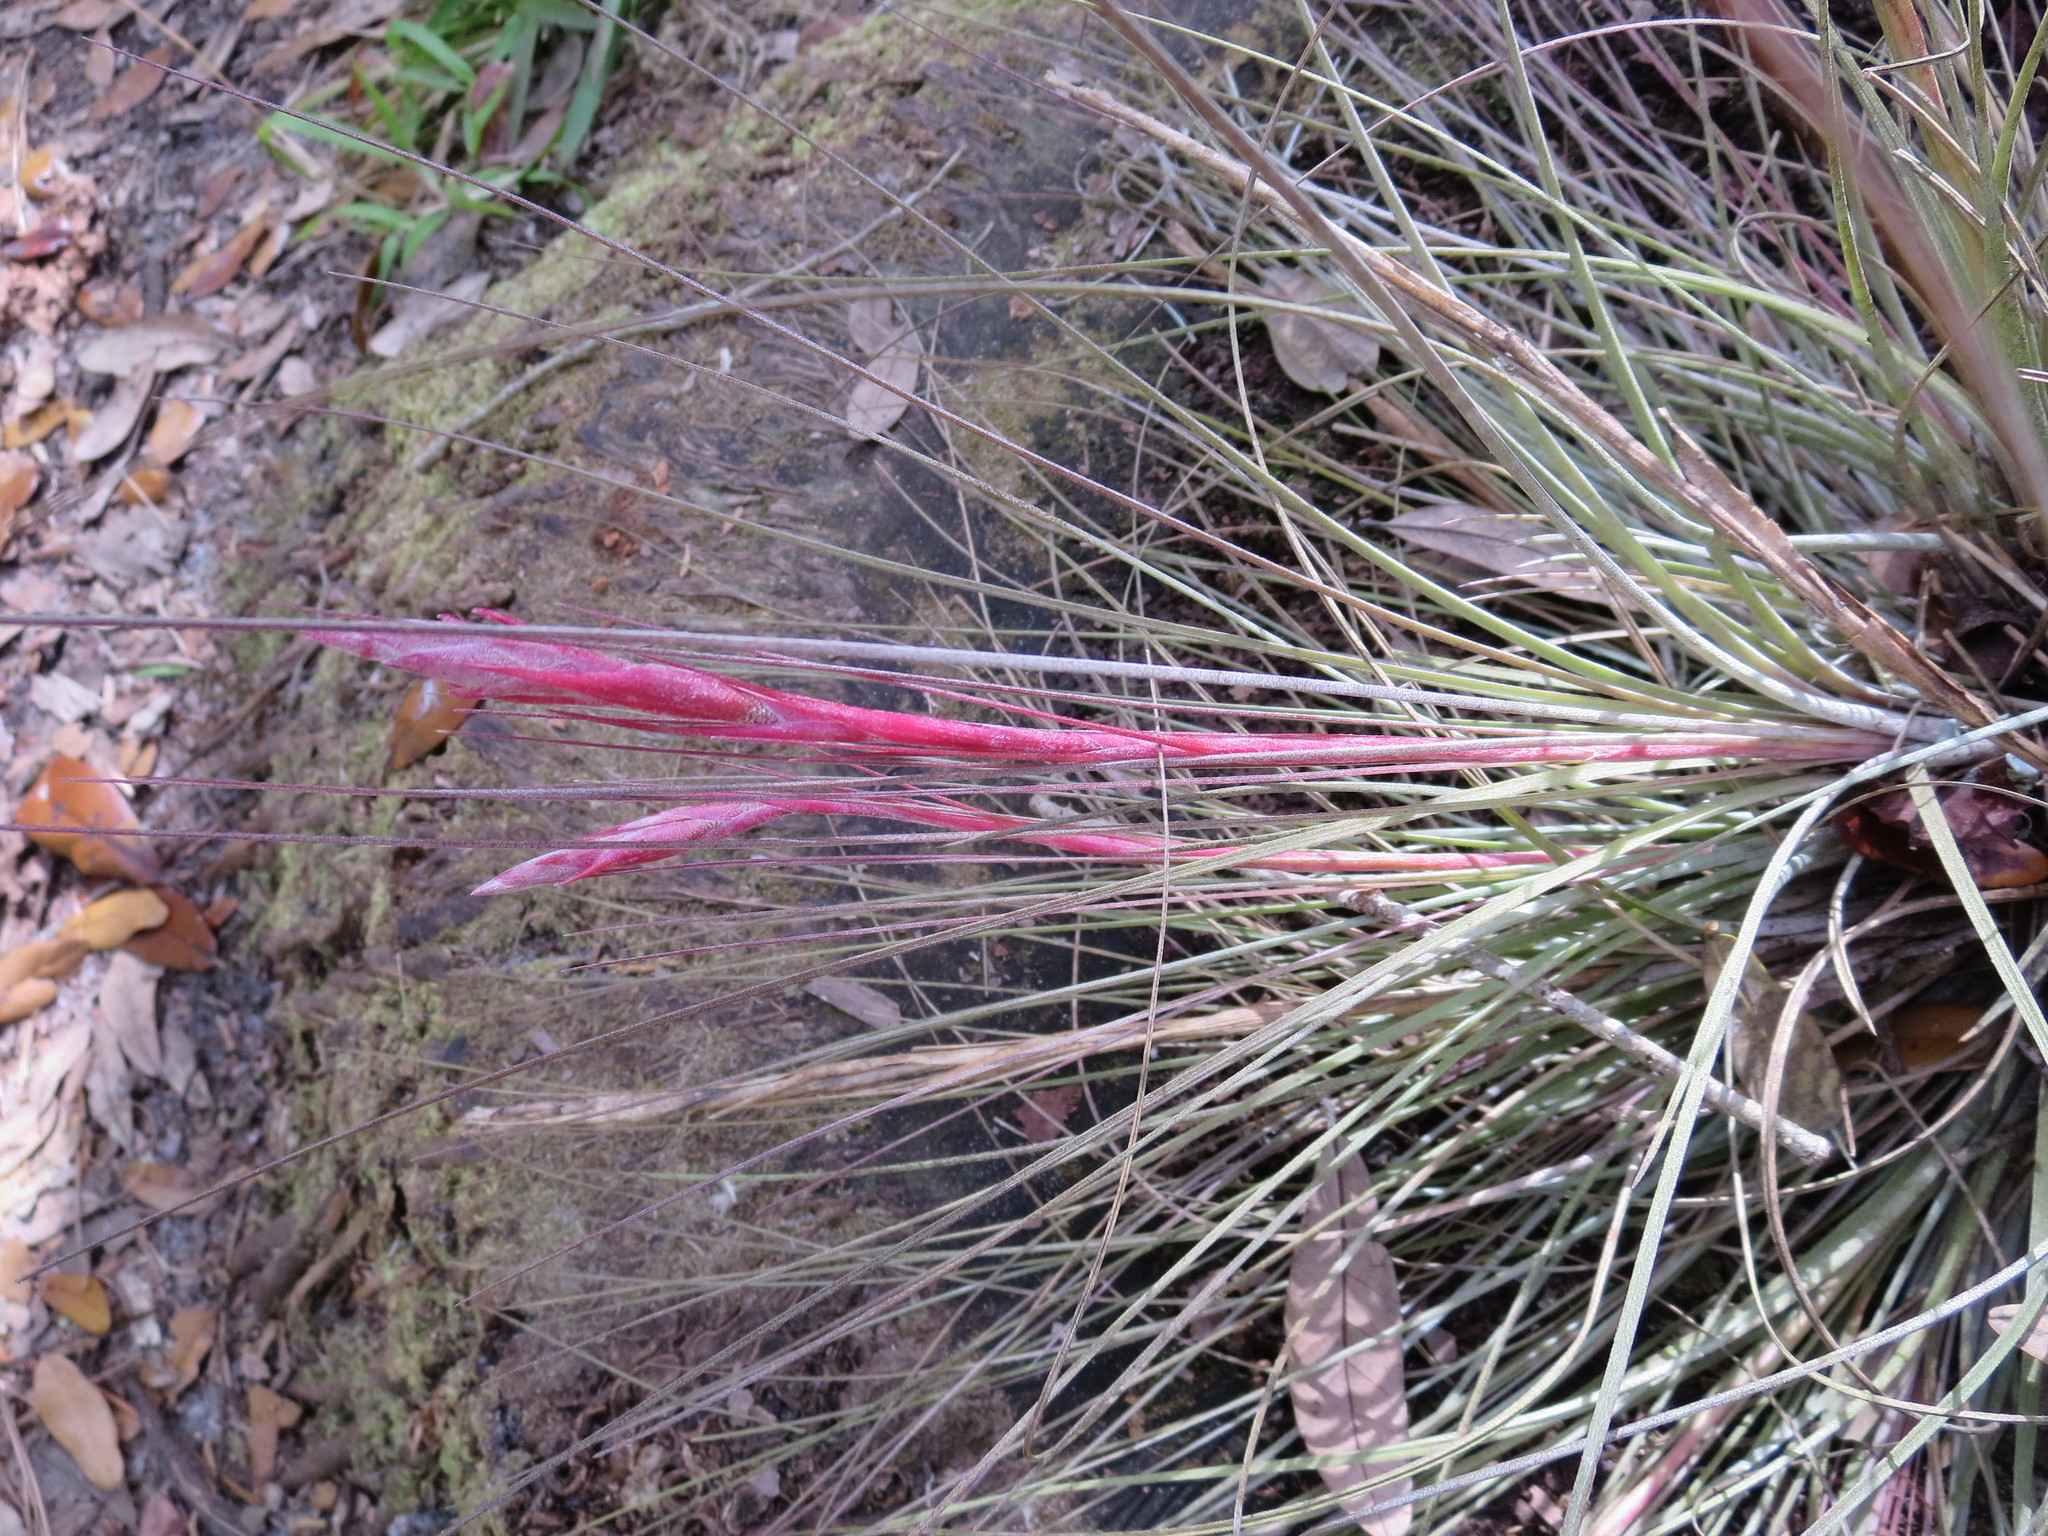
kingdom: Plantae
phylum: Tracheophyta
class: Liliopsida
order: Poales
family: Bromeliaceae
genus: Tillandsia
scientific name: Tillandsia bartramii
